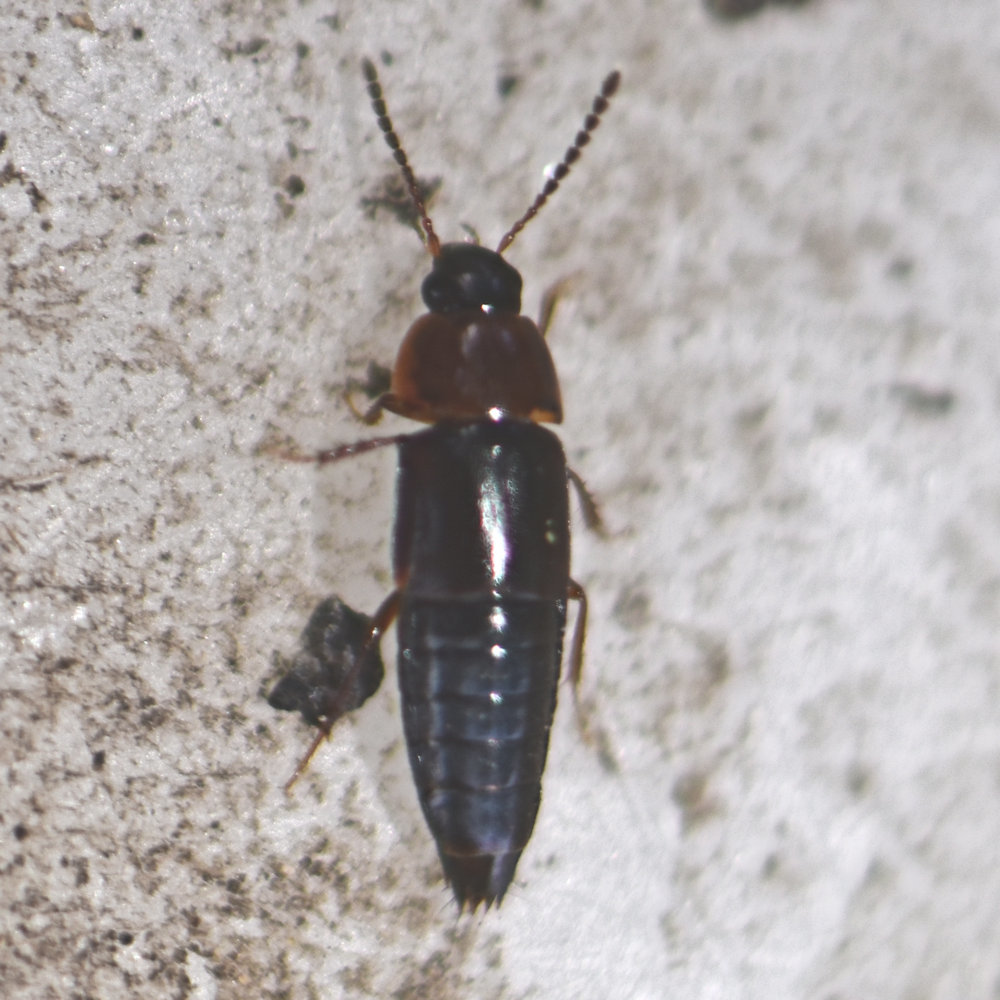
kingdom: Animalia
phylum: Arthropoda
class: Insecta
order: Coleoptera
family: Staphylinidae
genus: Tachinus
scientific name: Tachinus corticinus
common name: Staph beetle
